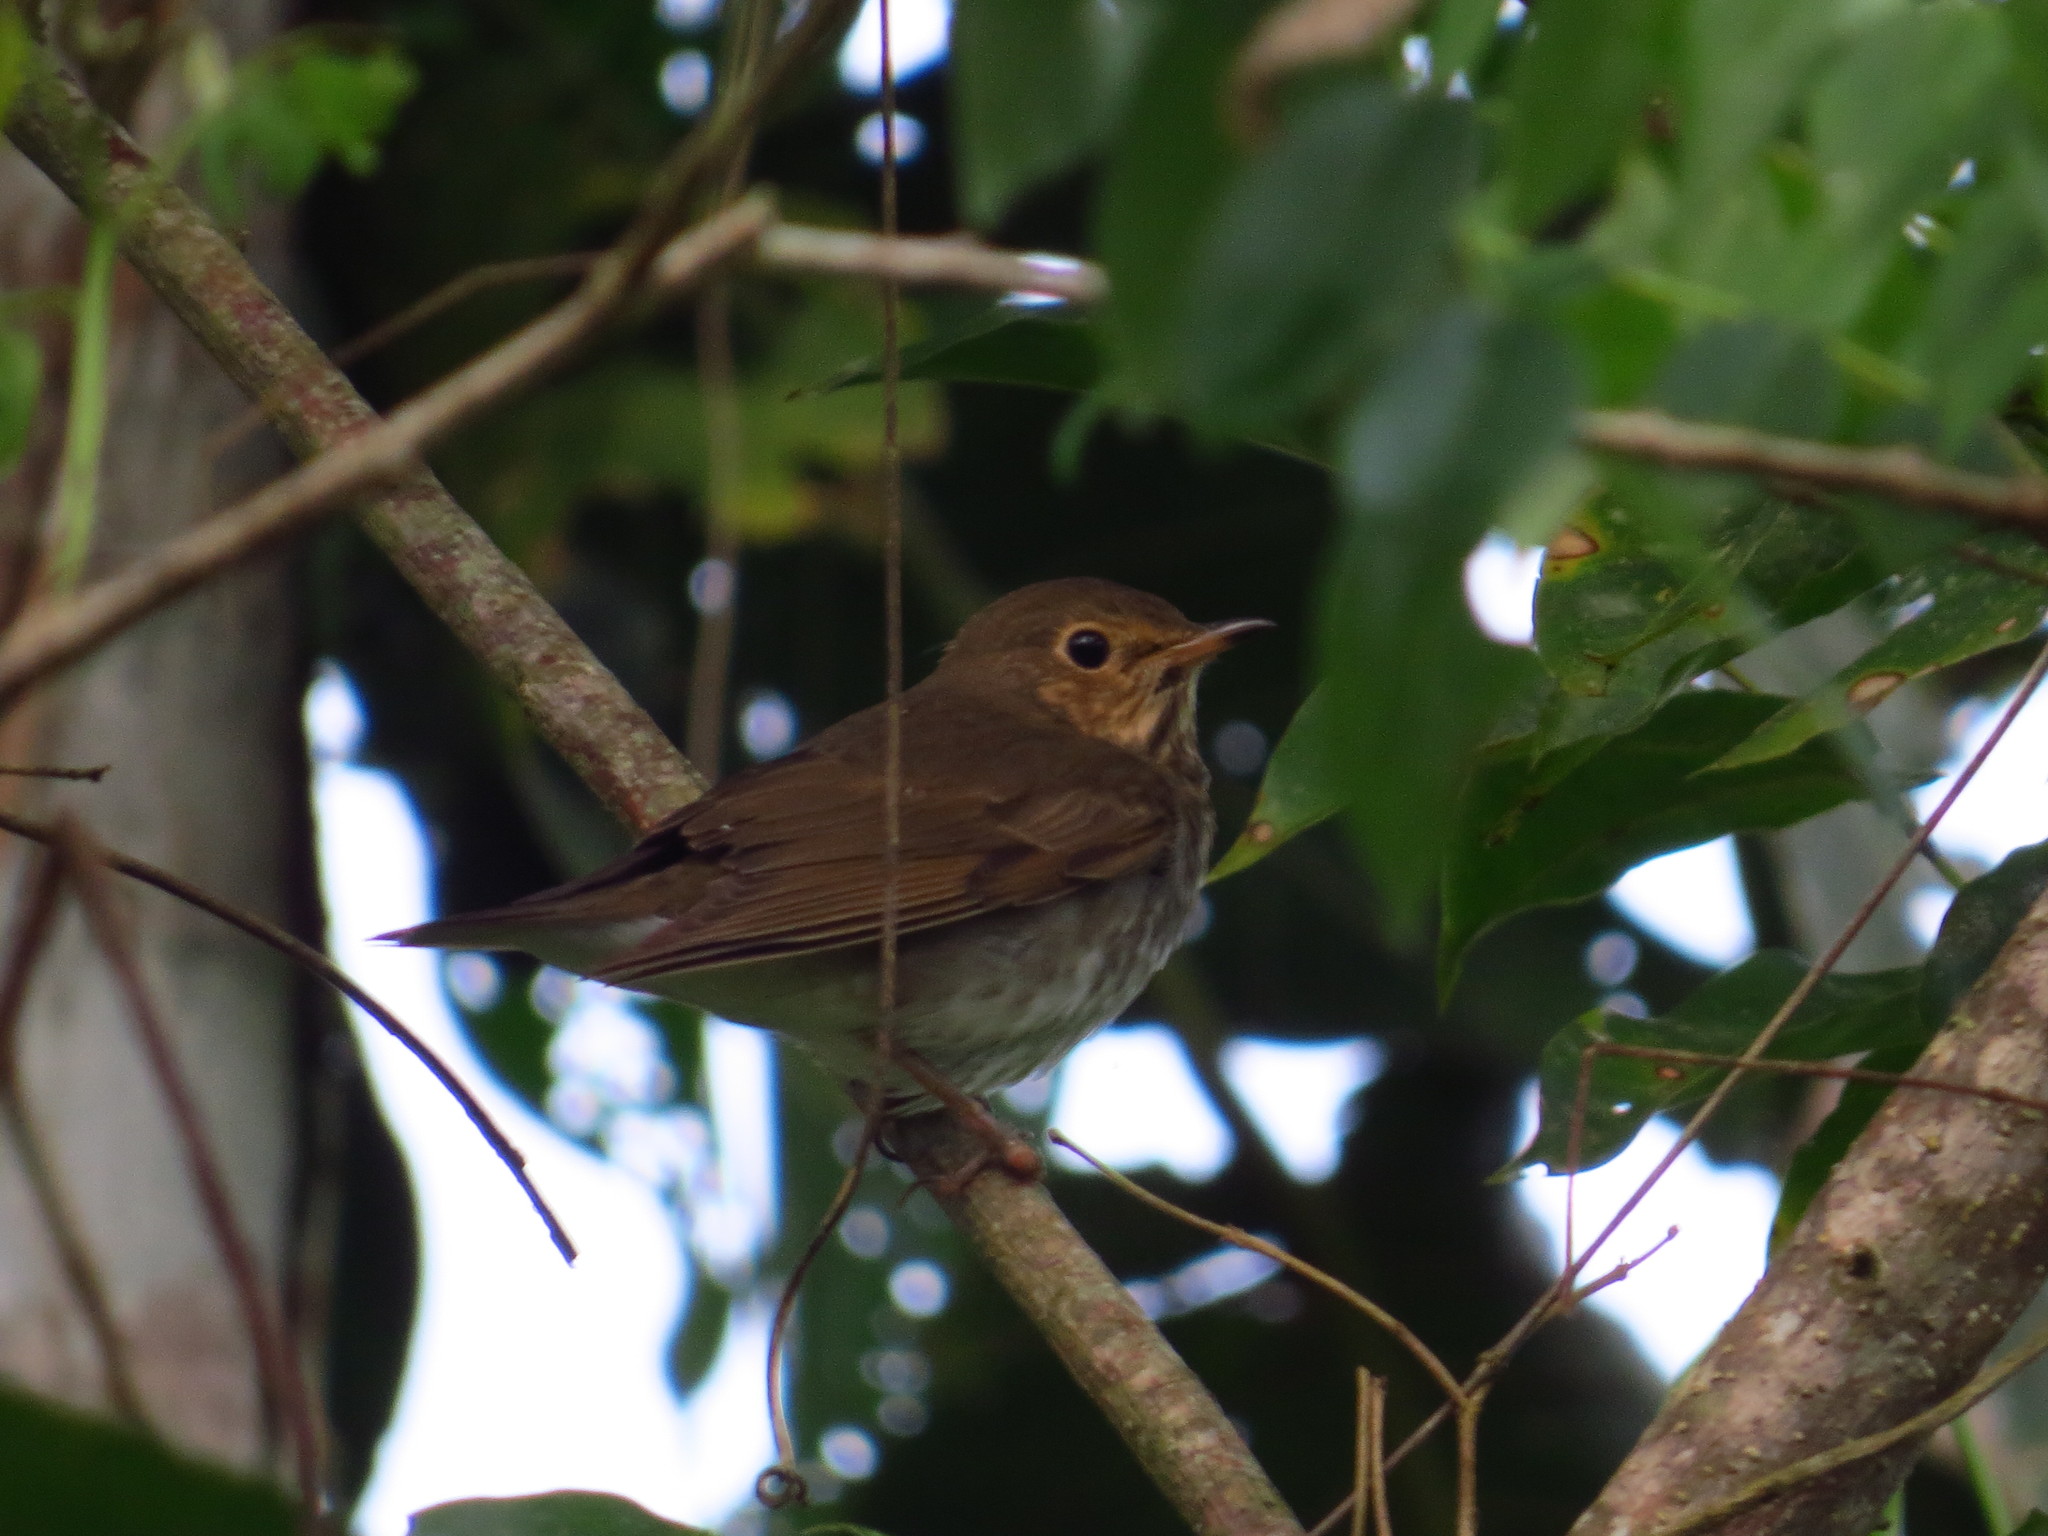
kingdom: Animalia
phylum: Chordata
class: Aves
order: Passeriformes
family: Turdidae
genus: Catharus
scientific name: Catharus ustulatus
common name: Swainson's thrush
